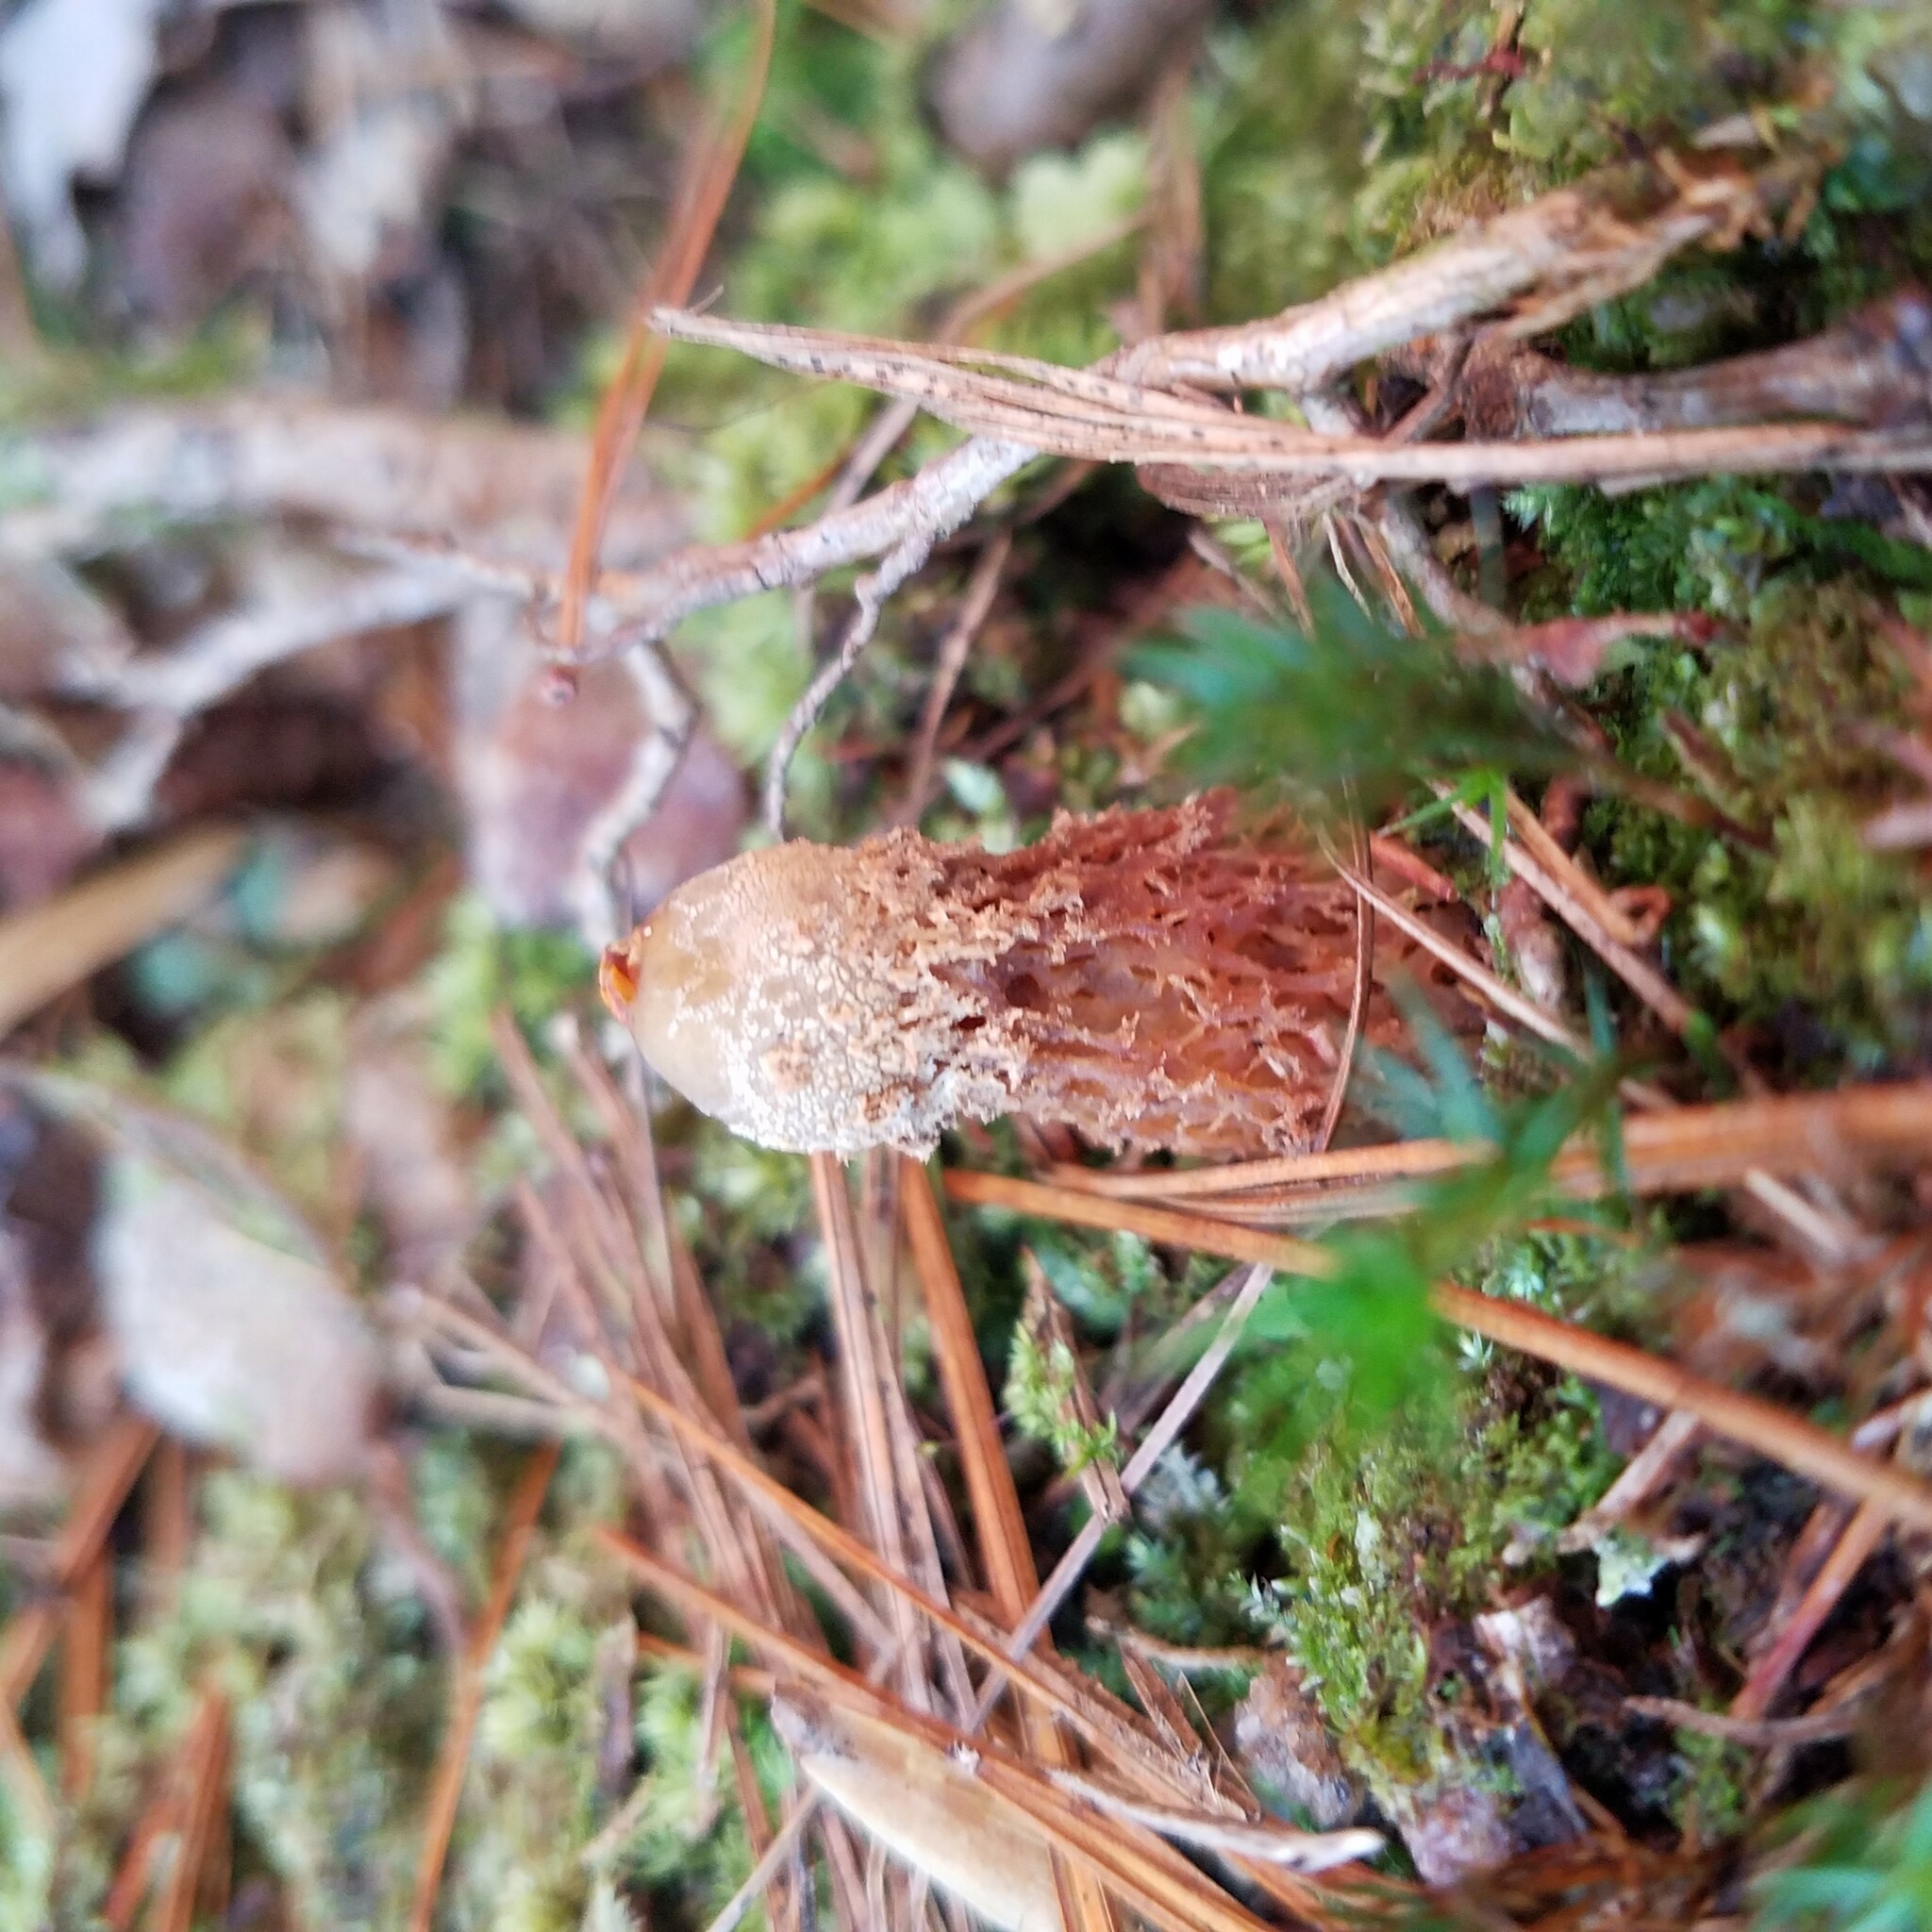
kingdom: Fungi
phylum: Basidiomycota
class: Agaricomycetes
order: Boletales
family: Calostomataceae
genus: Calostoma
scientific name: Calostoma ravenelii
